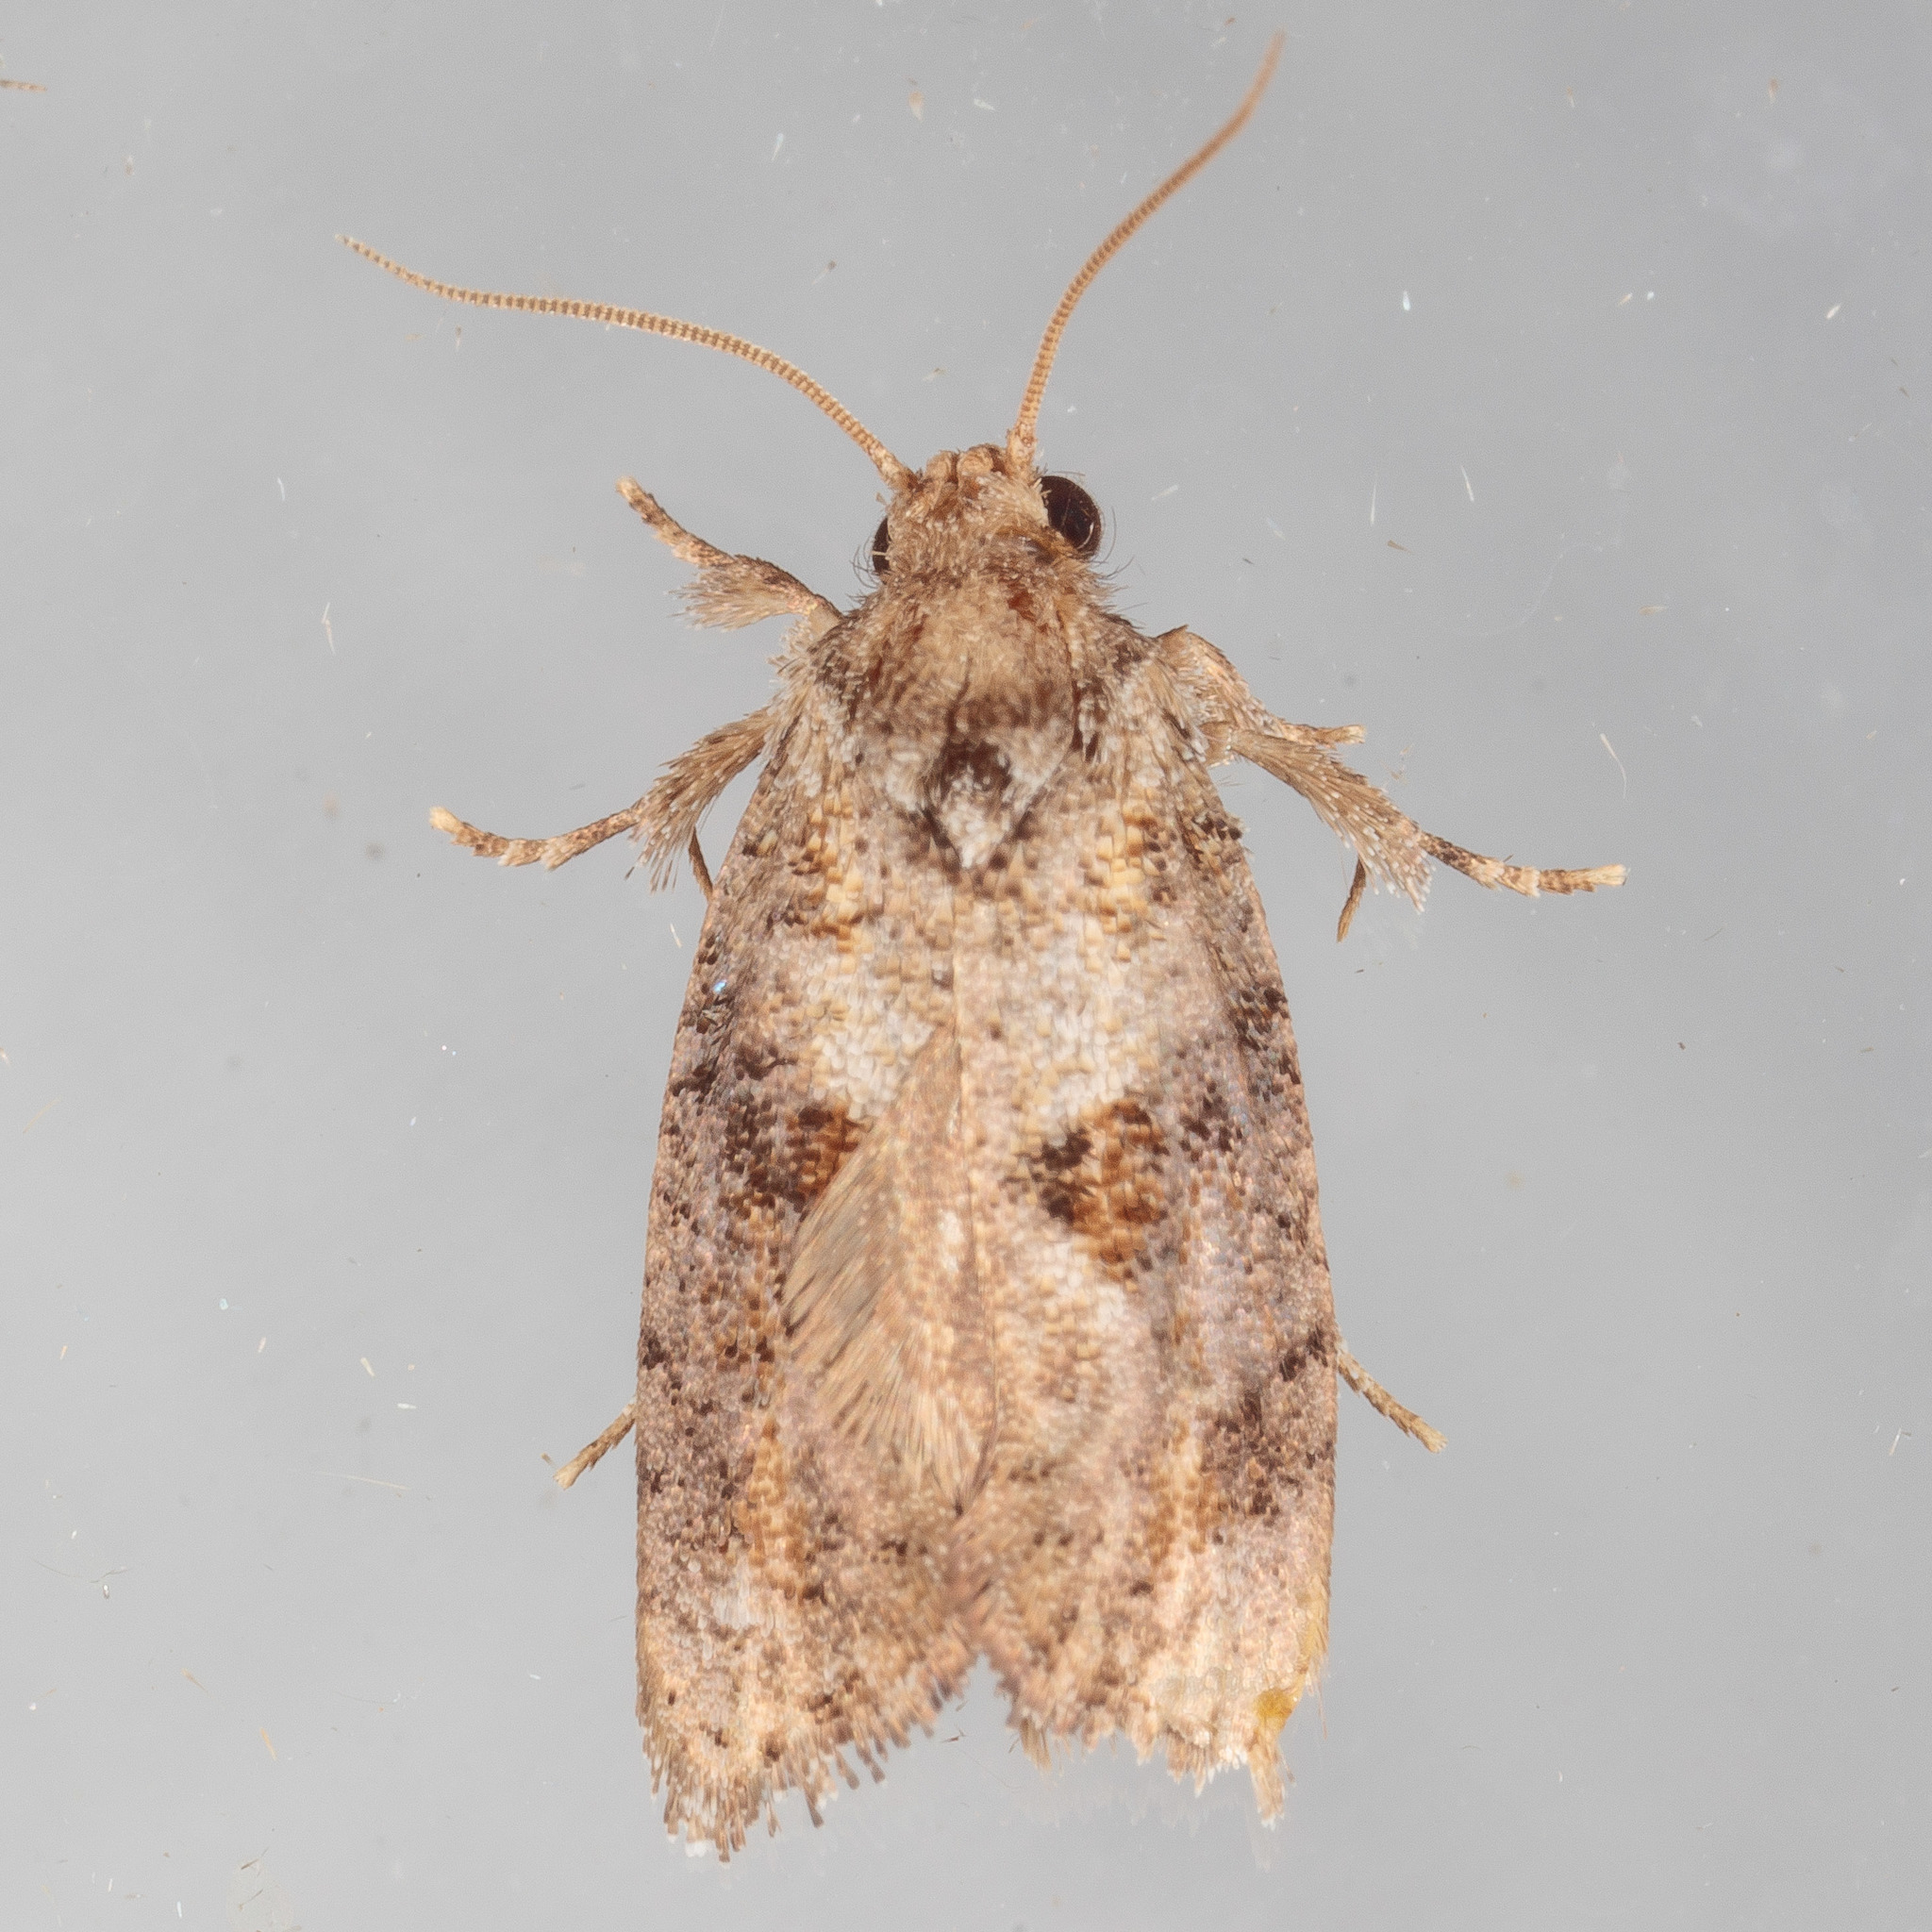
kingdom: Animalia
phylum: Arthropoda
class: Insecta
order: Lepidoptera
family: Tineidae
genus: Acrolophus
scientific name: Acrolophus piger
